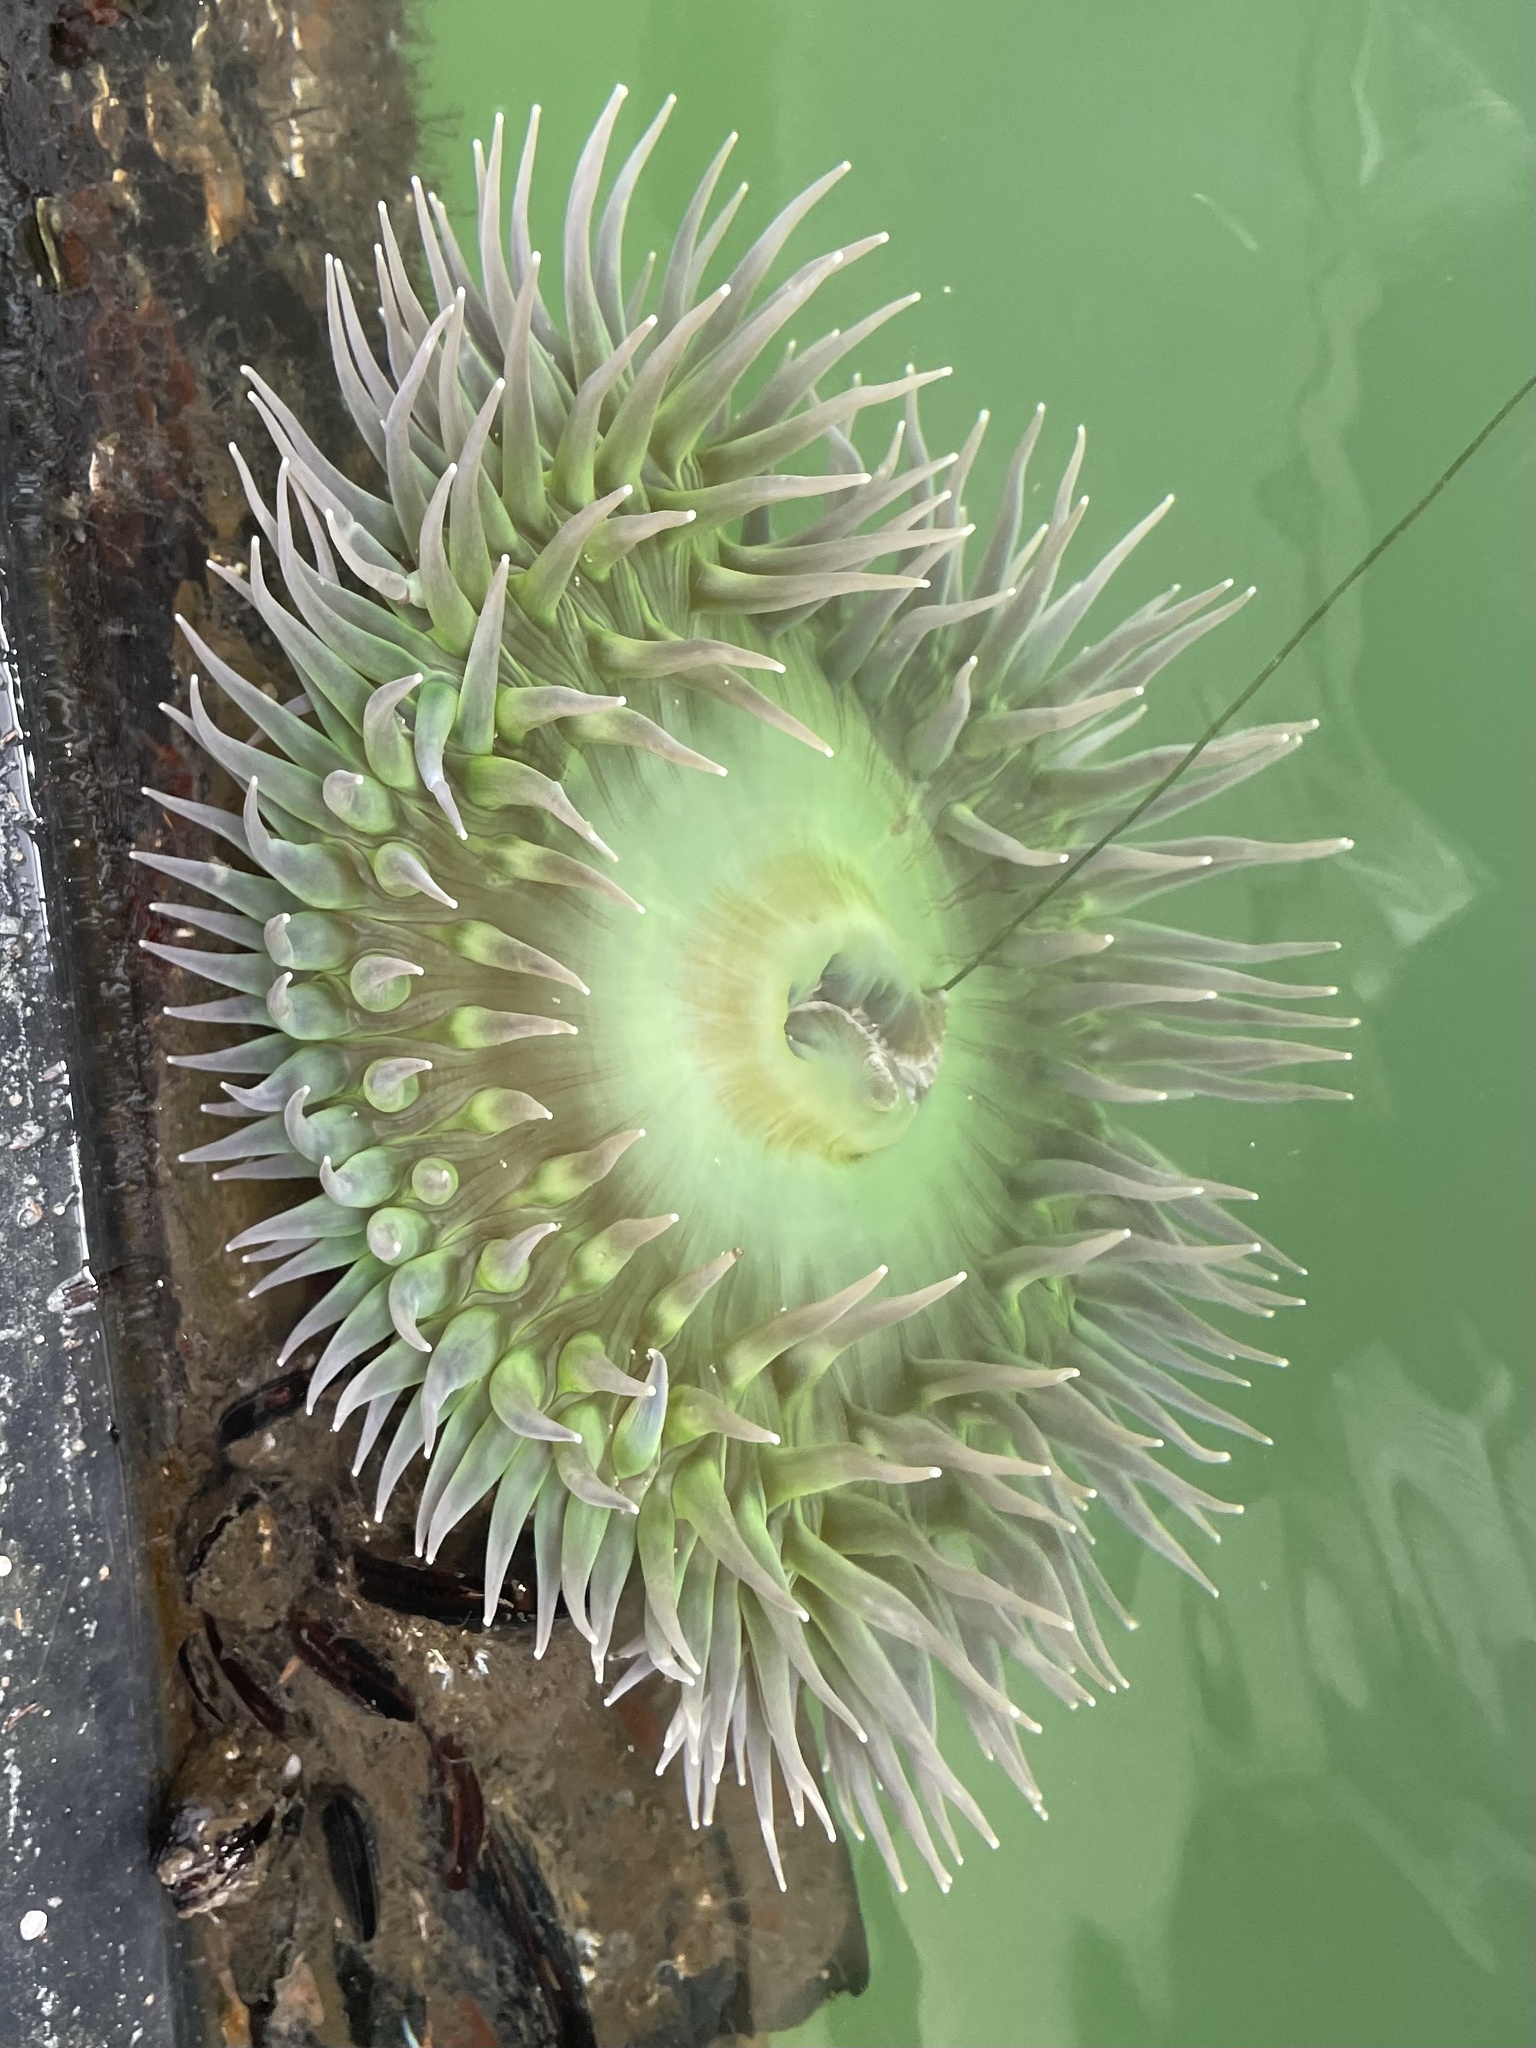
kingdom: Animalia
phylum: Cnidaria
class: Anthozoa
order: Actiniaria
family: Actiniidae
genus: Anthopleura
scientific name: Anthopleura xanthogrammica
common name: Giant green anemone
